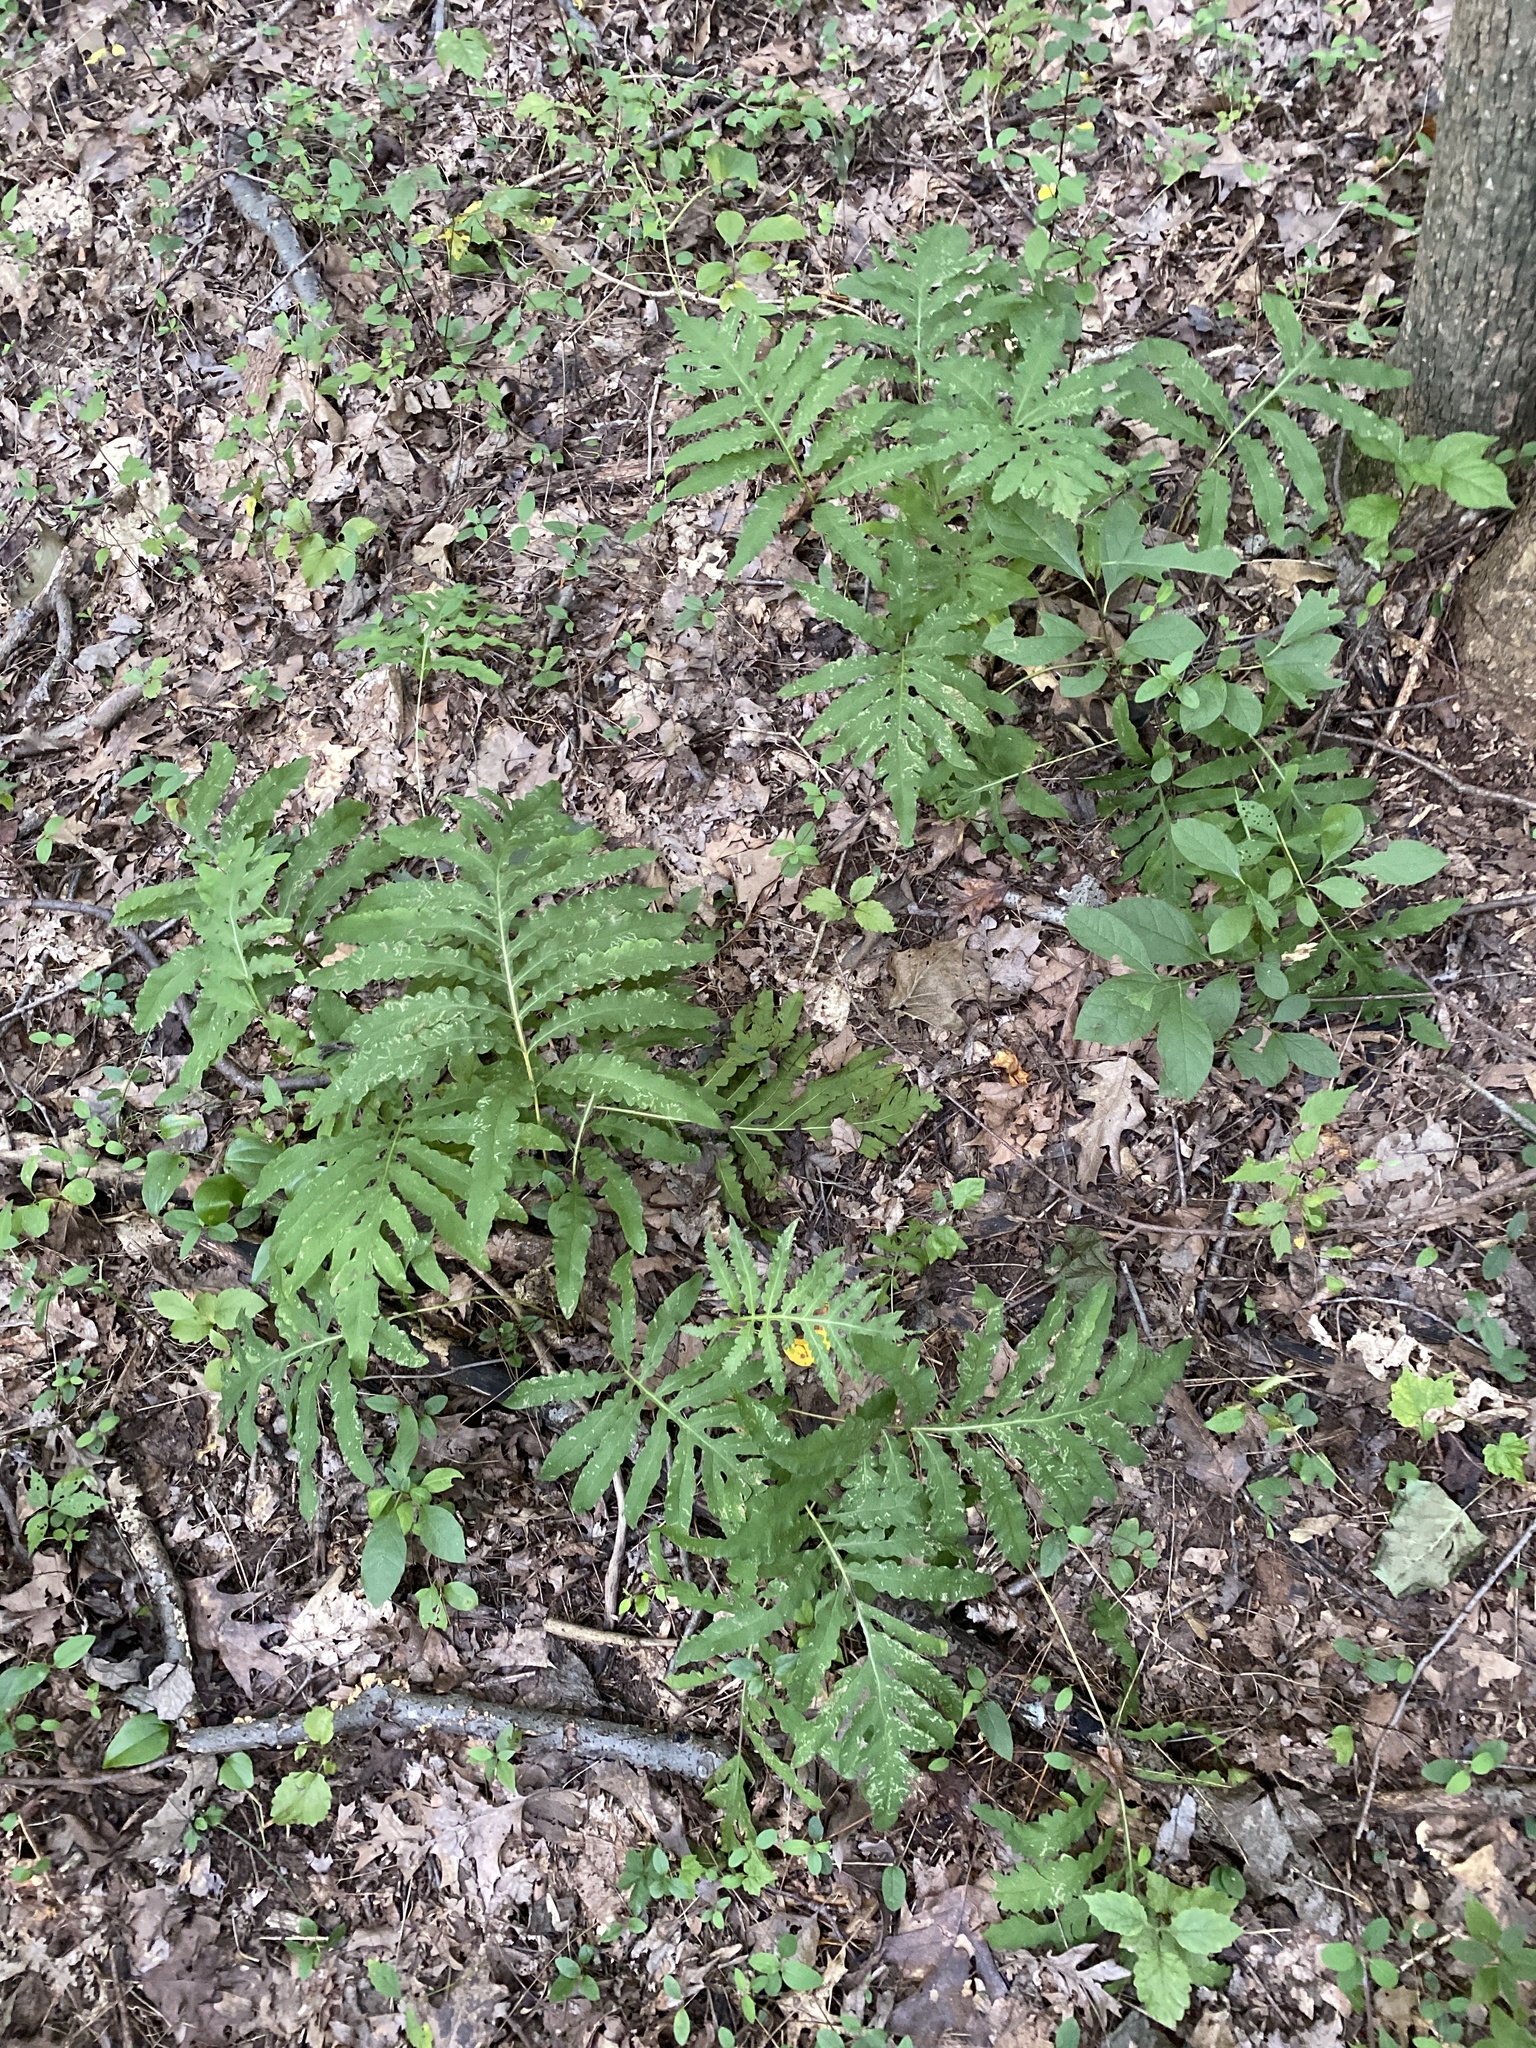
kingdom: Plantae
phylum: Tracheophyta
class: Polypodiopsida
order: Polypodiales
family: Onocleaceae
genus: Onoclea
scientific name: Onoclea sensibilis
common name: Sensitive fern
